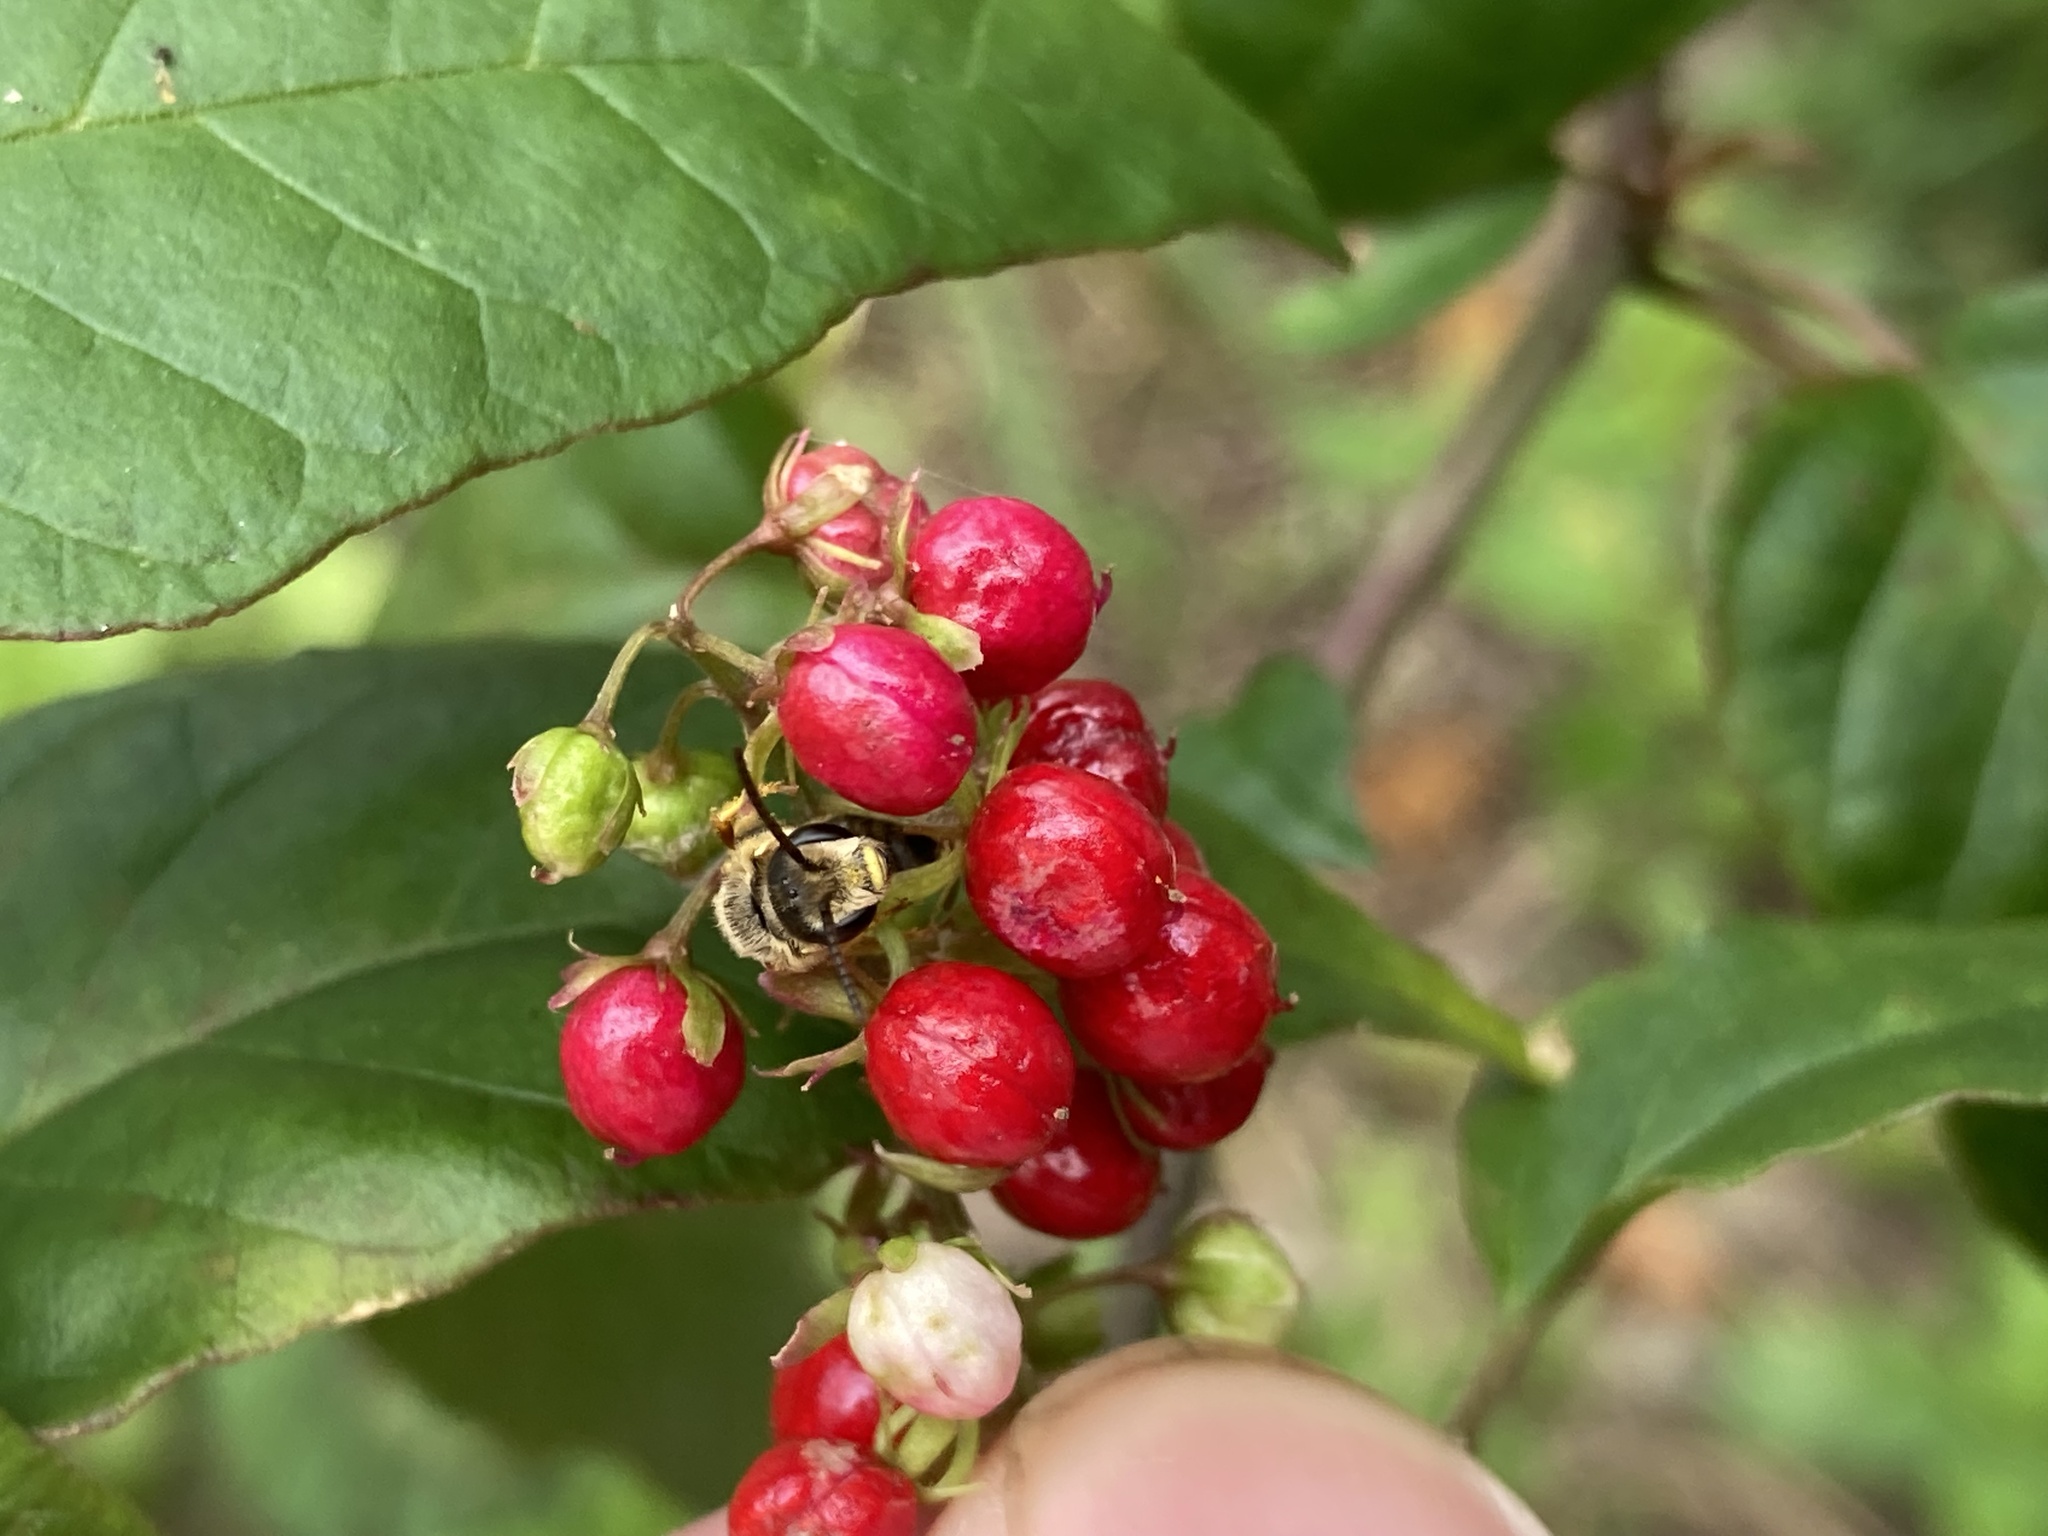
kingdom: Plantae
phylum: Tracheophyta
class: Magnoliopsida
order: Caryophyllales
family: Phytolaccaceae
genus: Rivina
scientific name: Rivina humilis
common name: Rougeplant
